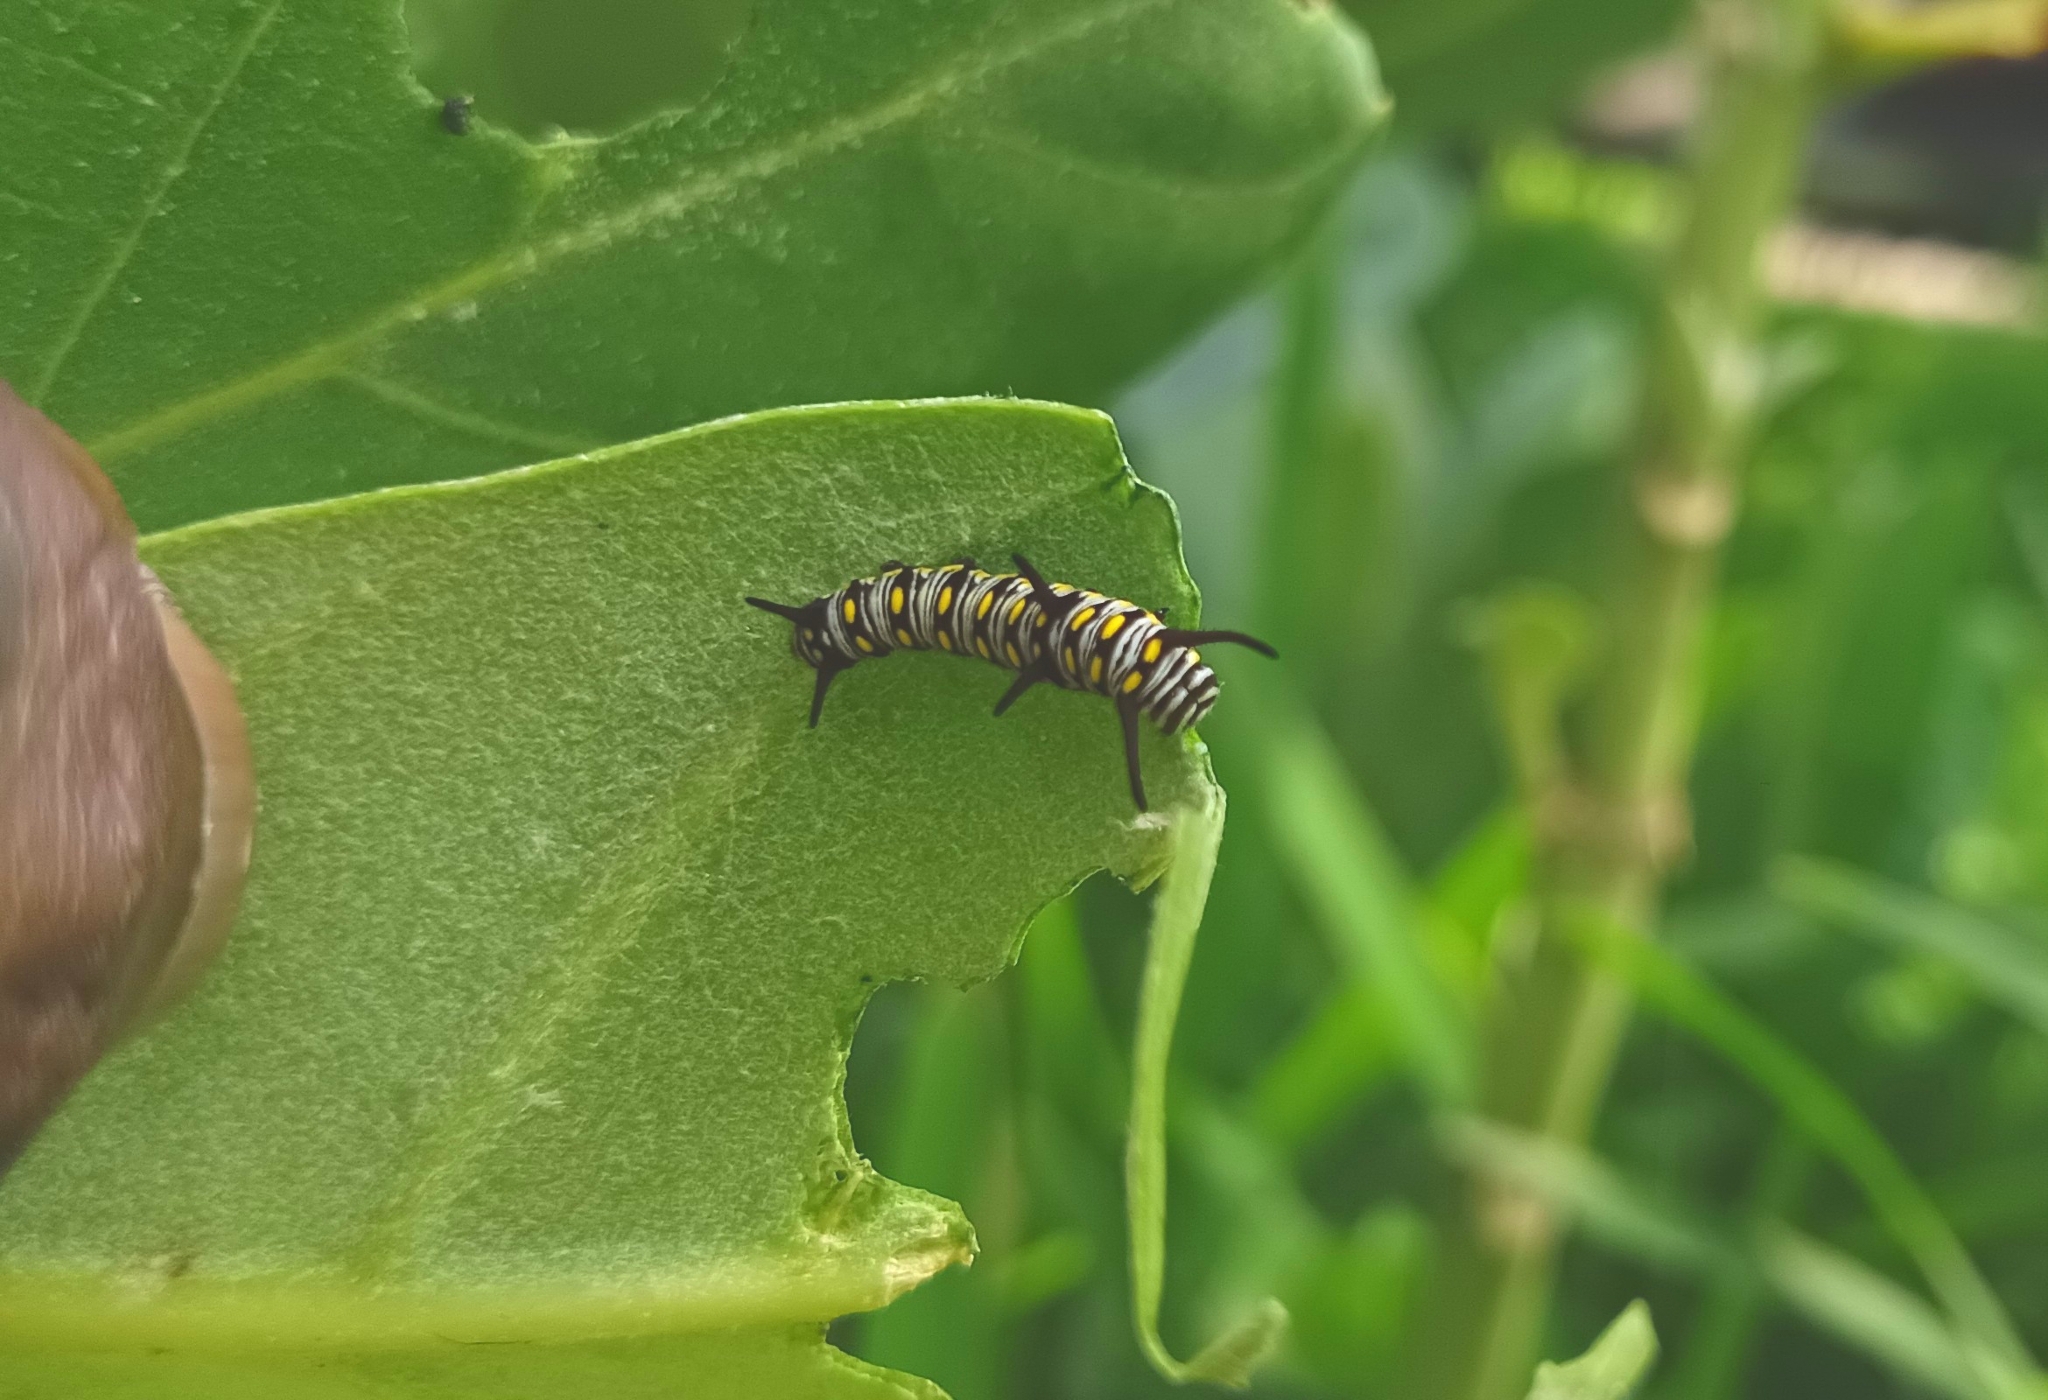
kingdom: Animalia
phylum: Arthropoda
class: Insecta
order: Lepidoptera
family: Nymphalidae
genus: Danaus
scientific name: Danaus chrysippus
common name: Plain tiger
